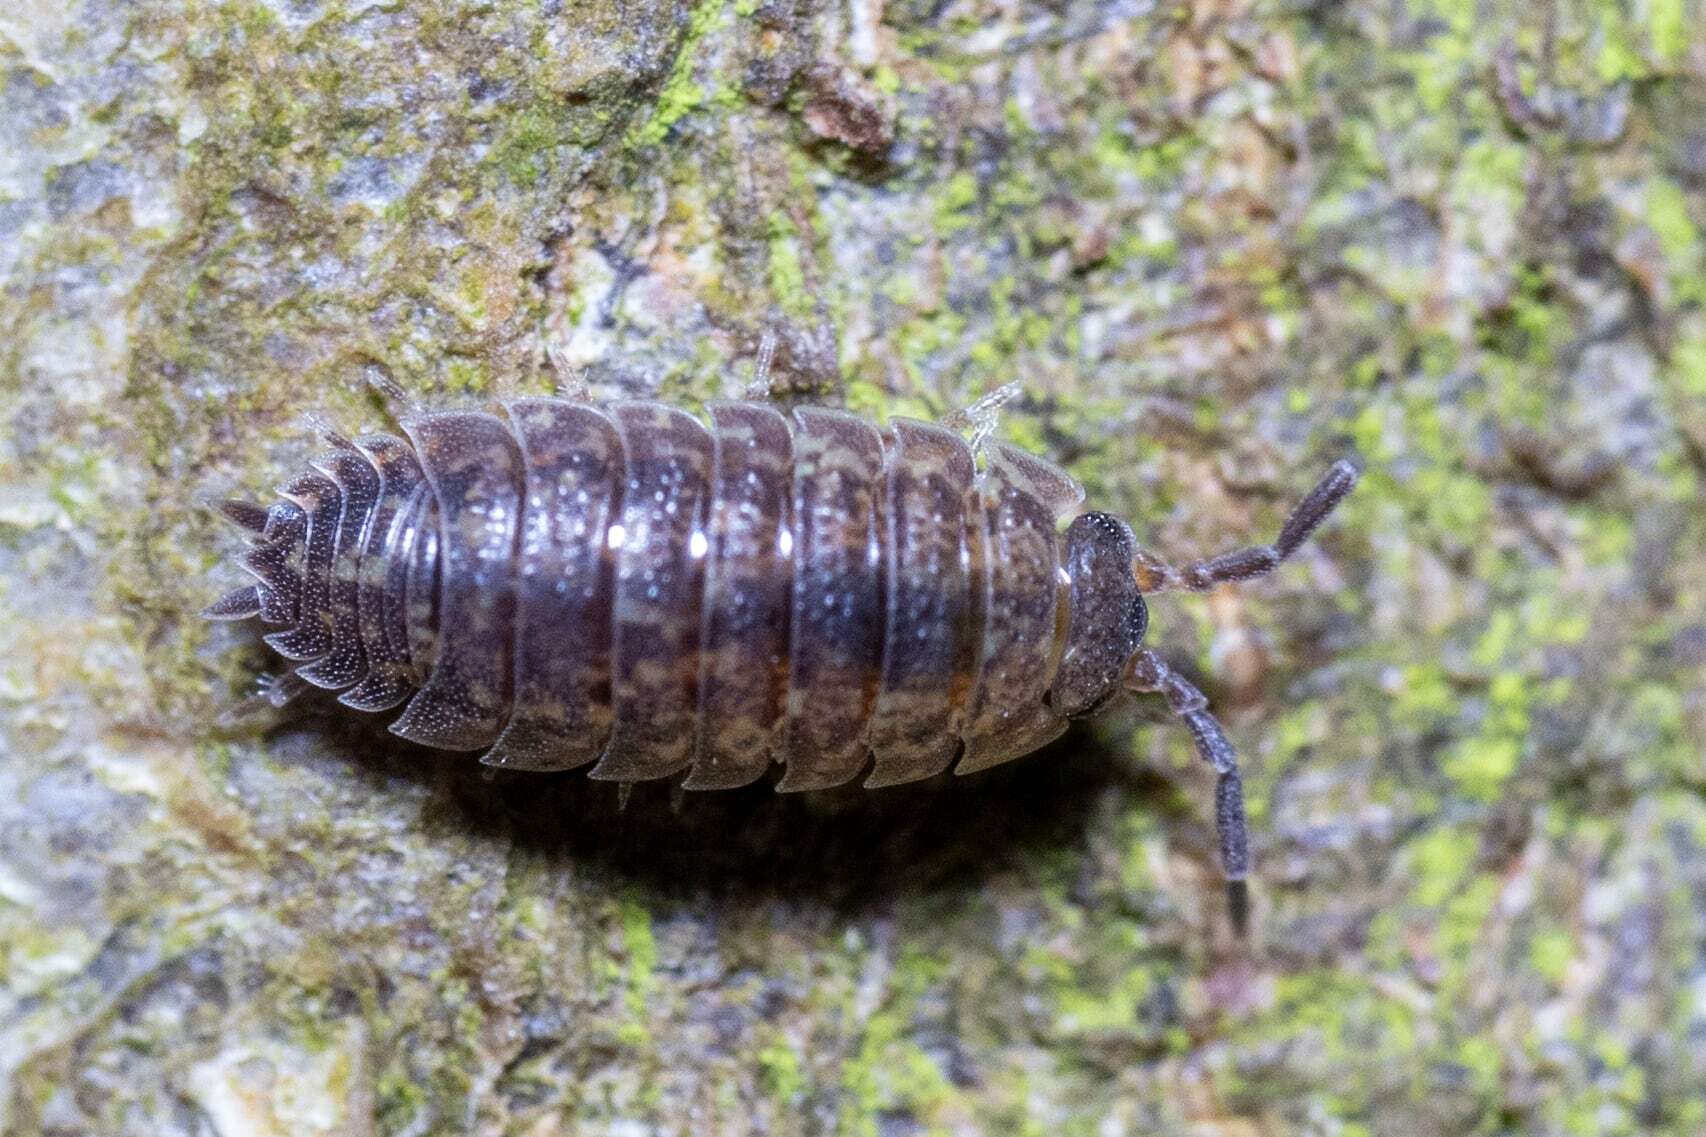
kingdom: Animalia
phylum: Arthropoda
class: Malacostraca
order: Isopoda
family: Porcellionidae
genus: Porcellio
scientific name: Porcellio scaber
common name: Common rough woodlouse
